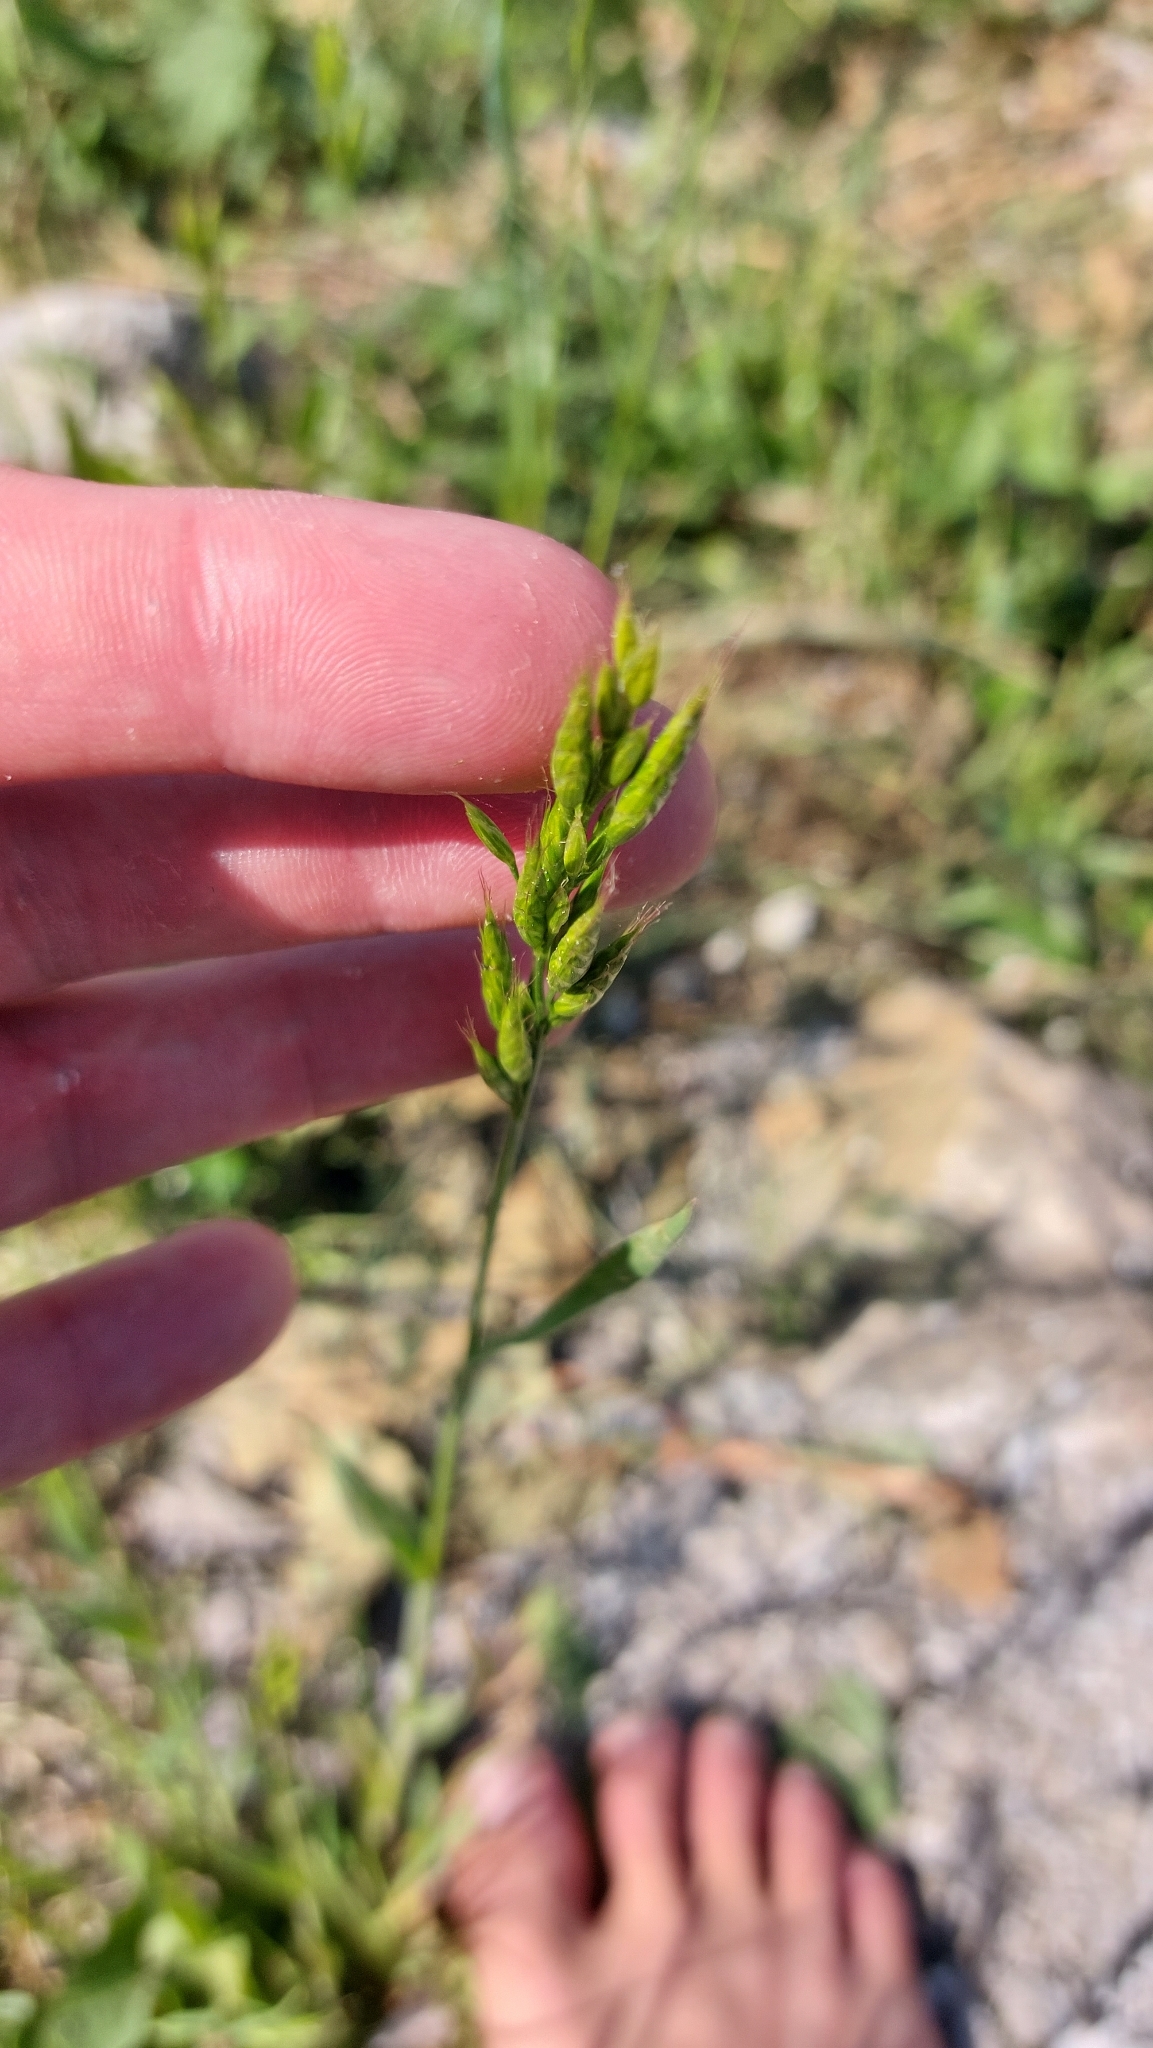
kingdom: Plantae
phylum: Tracheophyta
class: Liliopsida
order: Poales
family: Poaceae
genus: Bromus
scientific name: Bromus hordeaceus
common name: Soft brome
